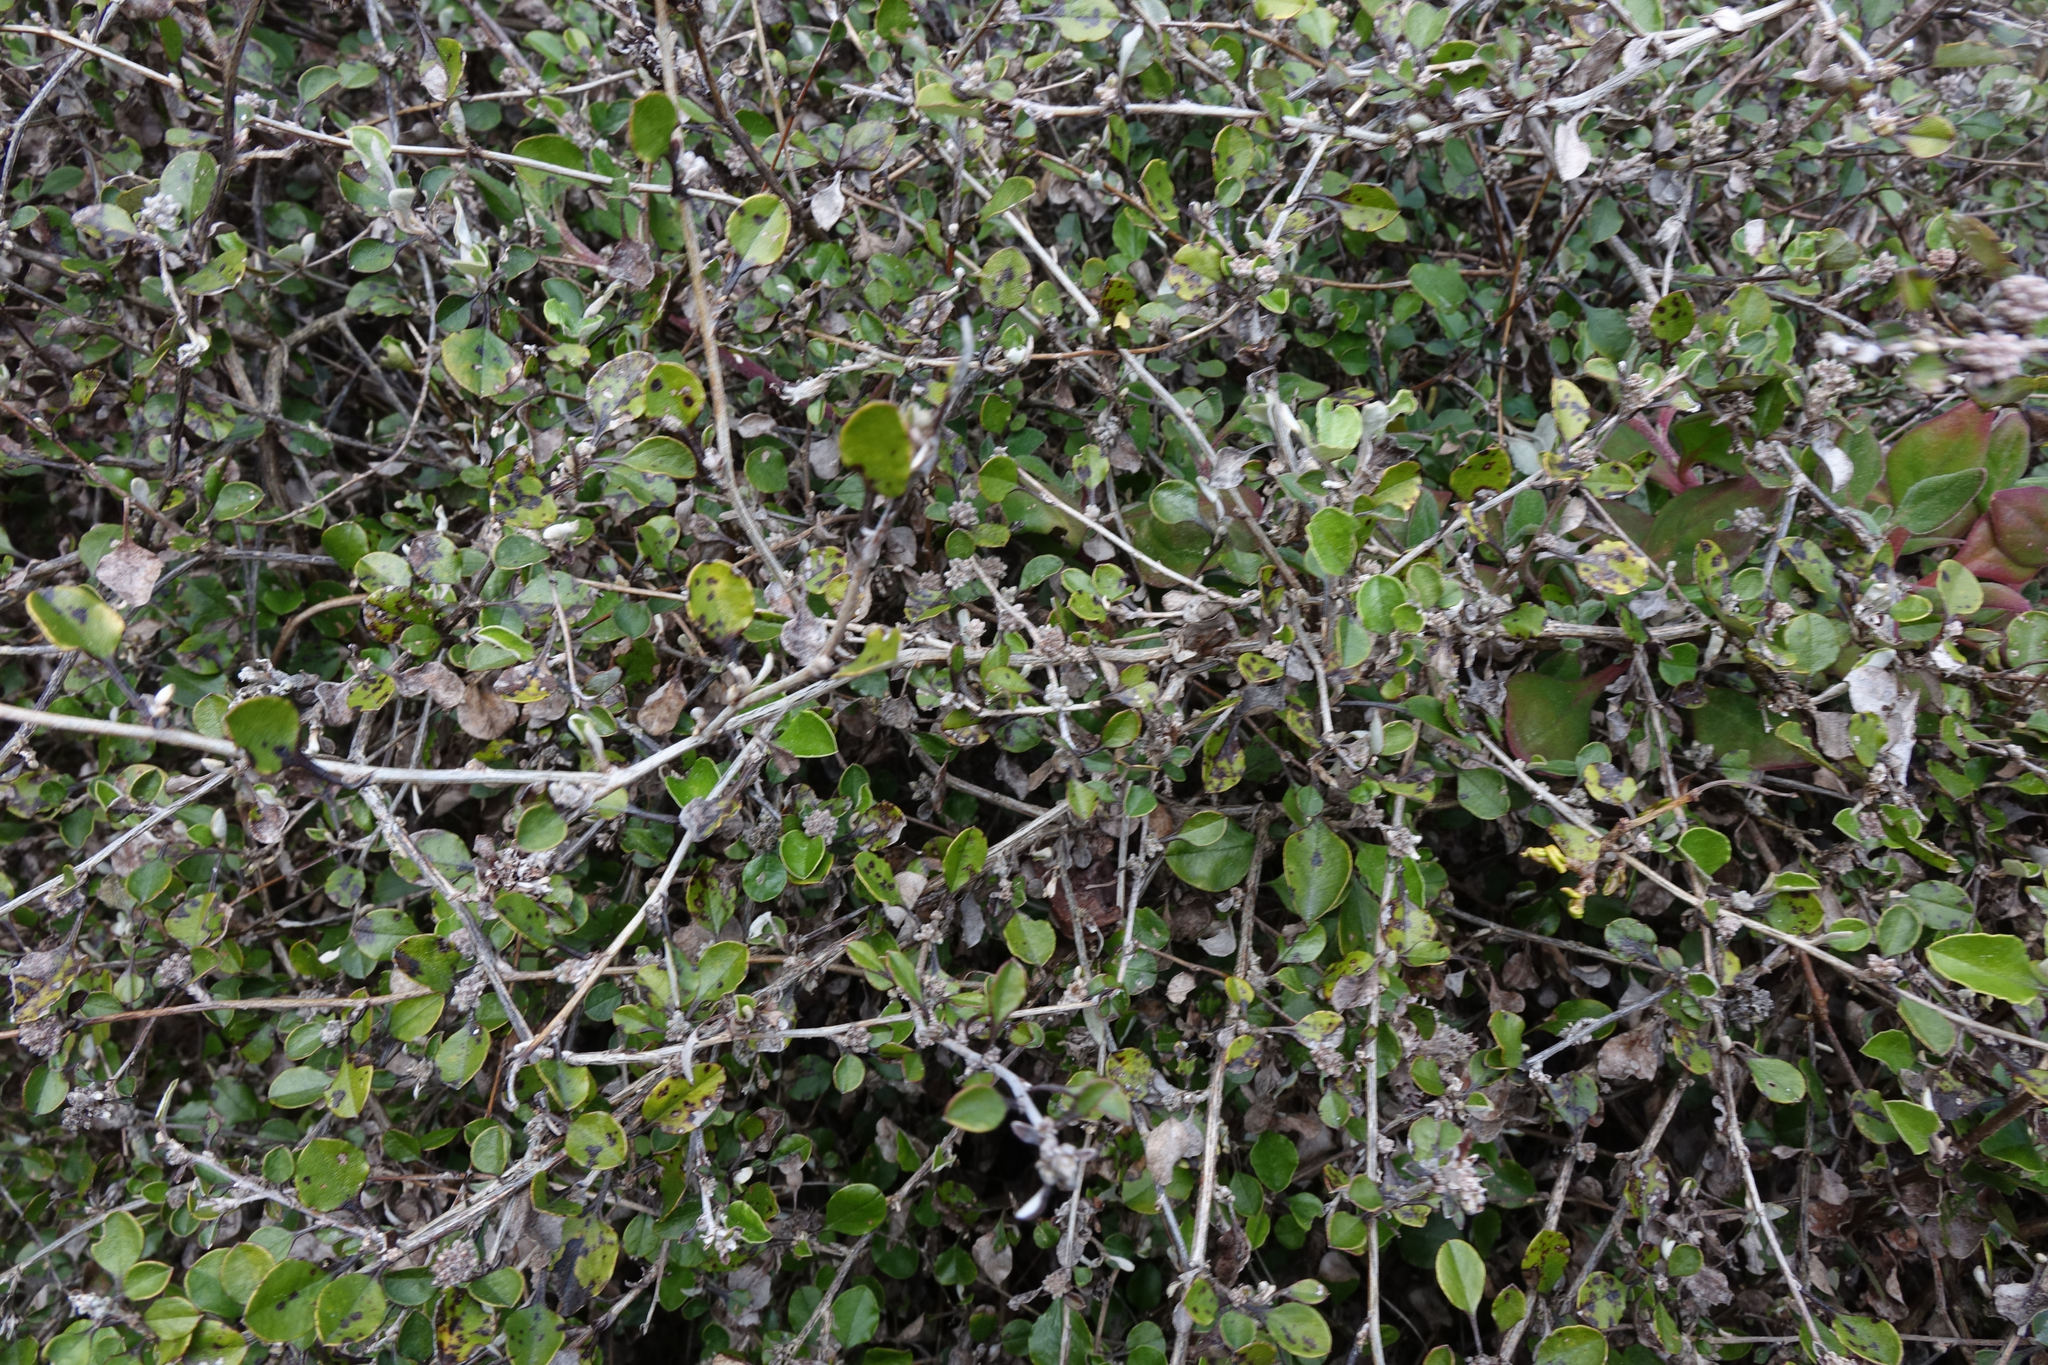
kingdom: Plantae
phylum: Tracheophyta
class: Magnoliopsida
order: Asterales
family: Asteraceae
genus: Ozothamnus
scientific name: Ozothamnus glomeratus
